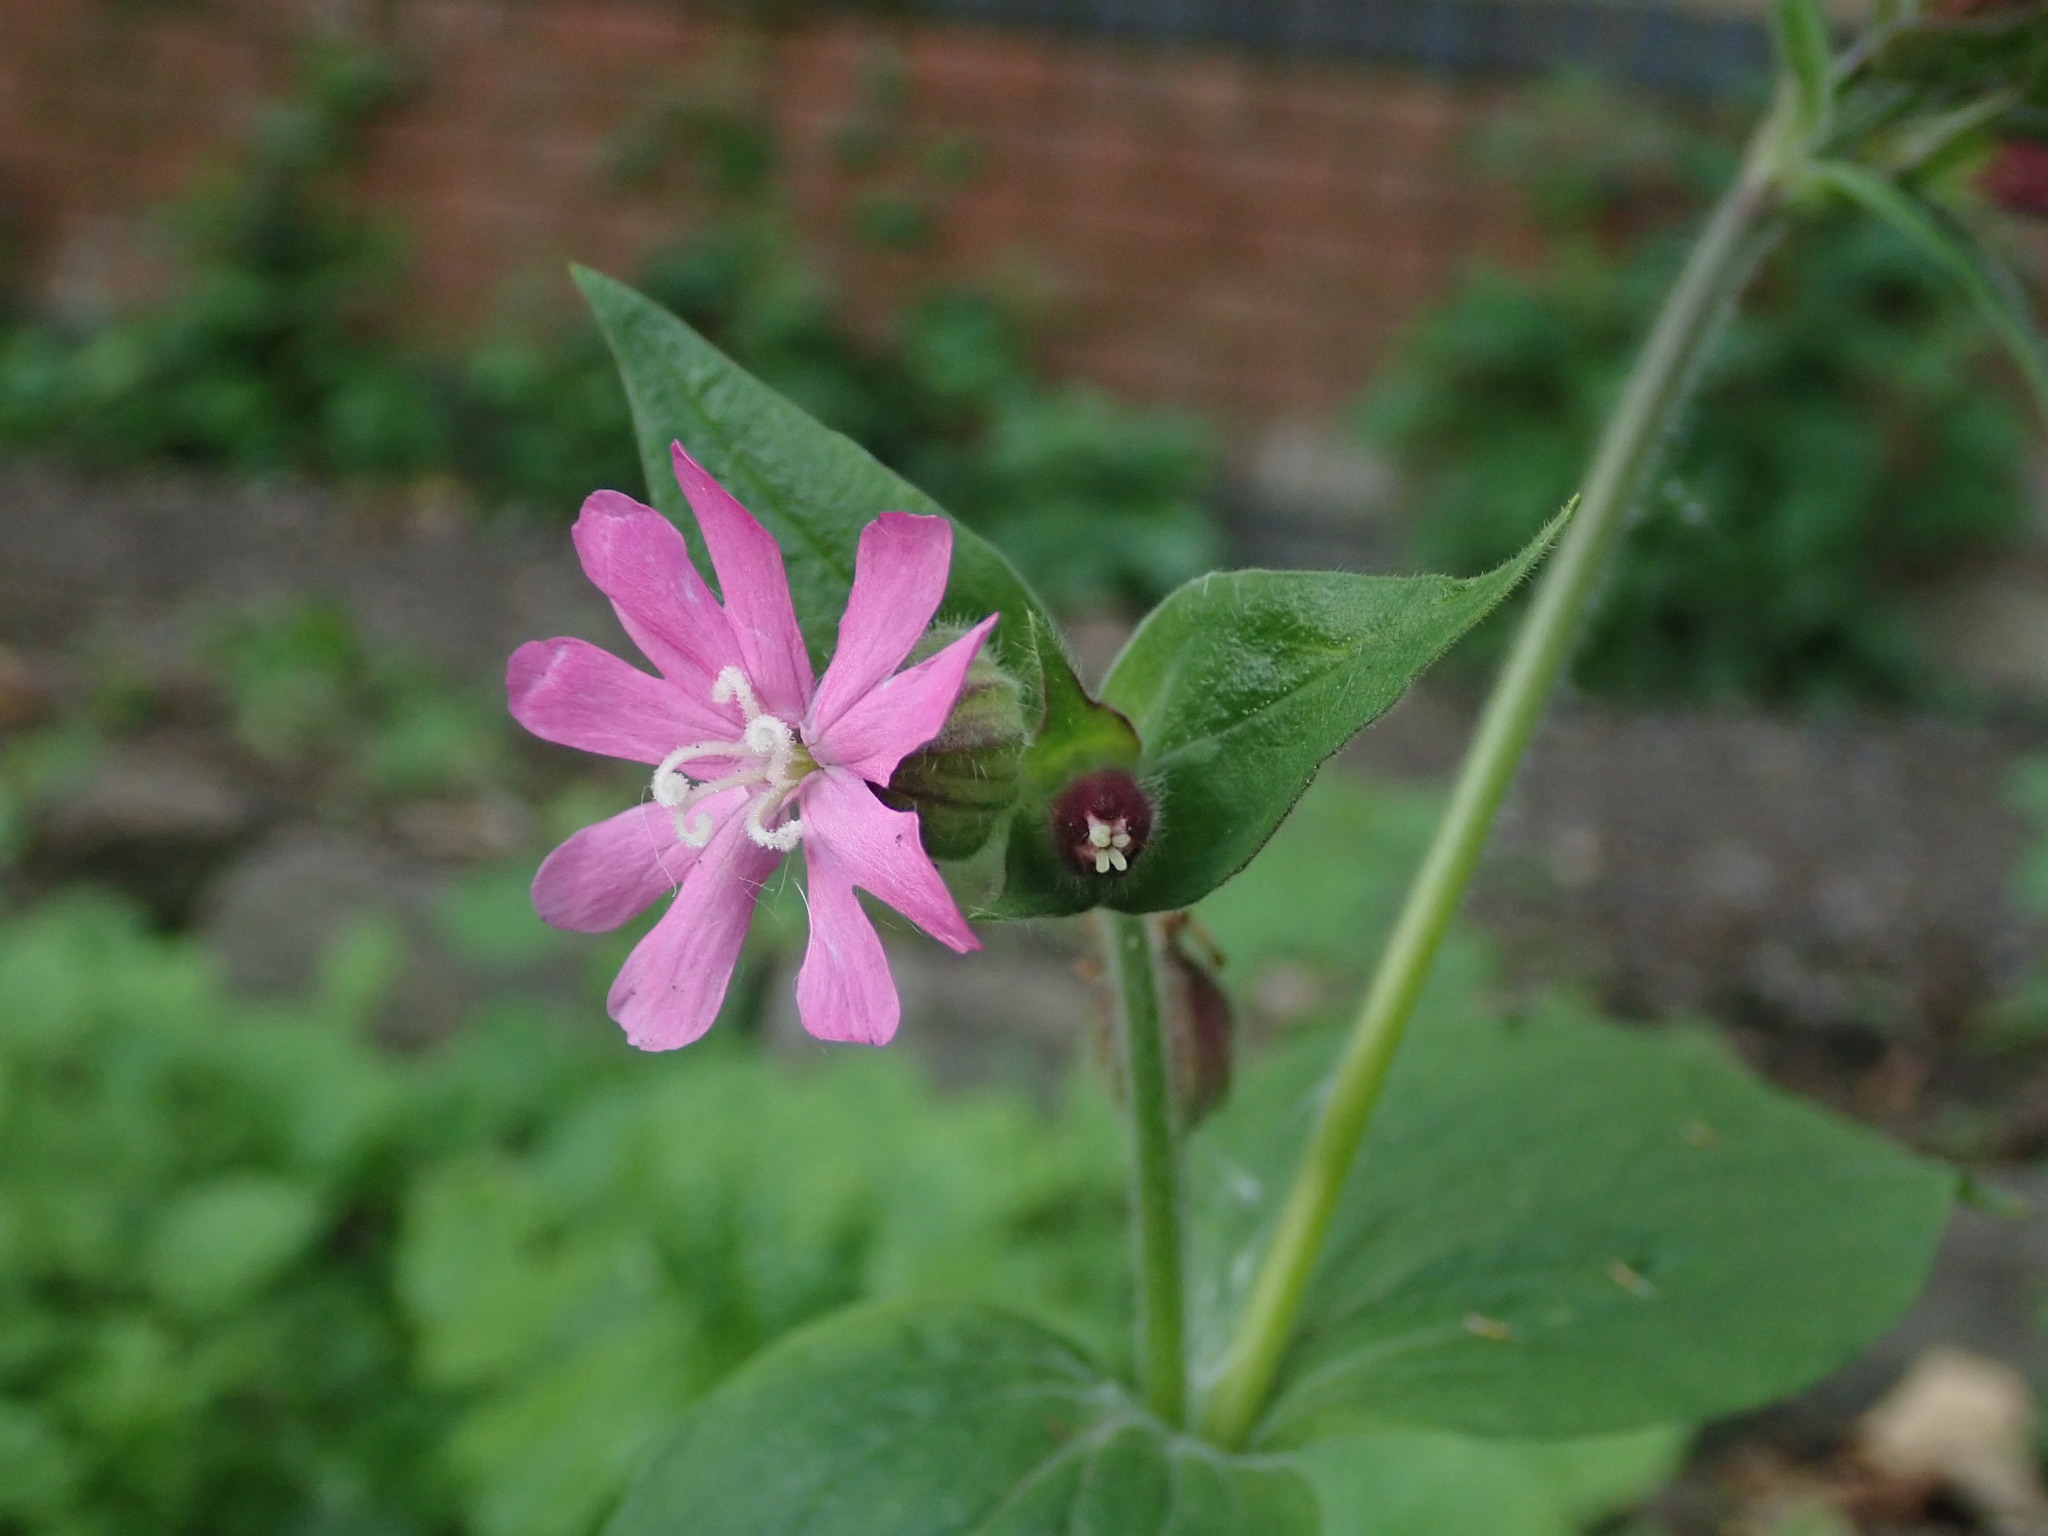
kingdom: Plantae
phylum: Tracheophyta
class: Magnoliopsida
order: Caryophyllales
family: Caryophyllaceae
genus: Silene
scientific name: Silene dioica
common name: Red campion
